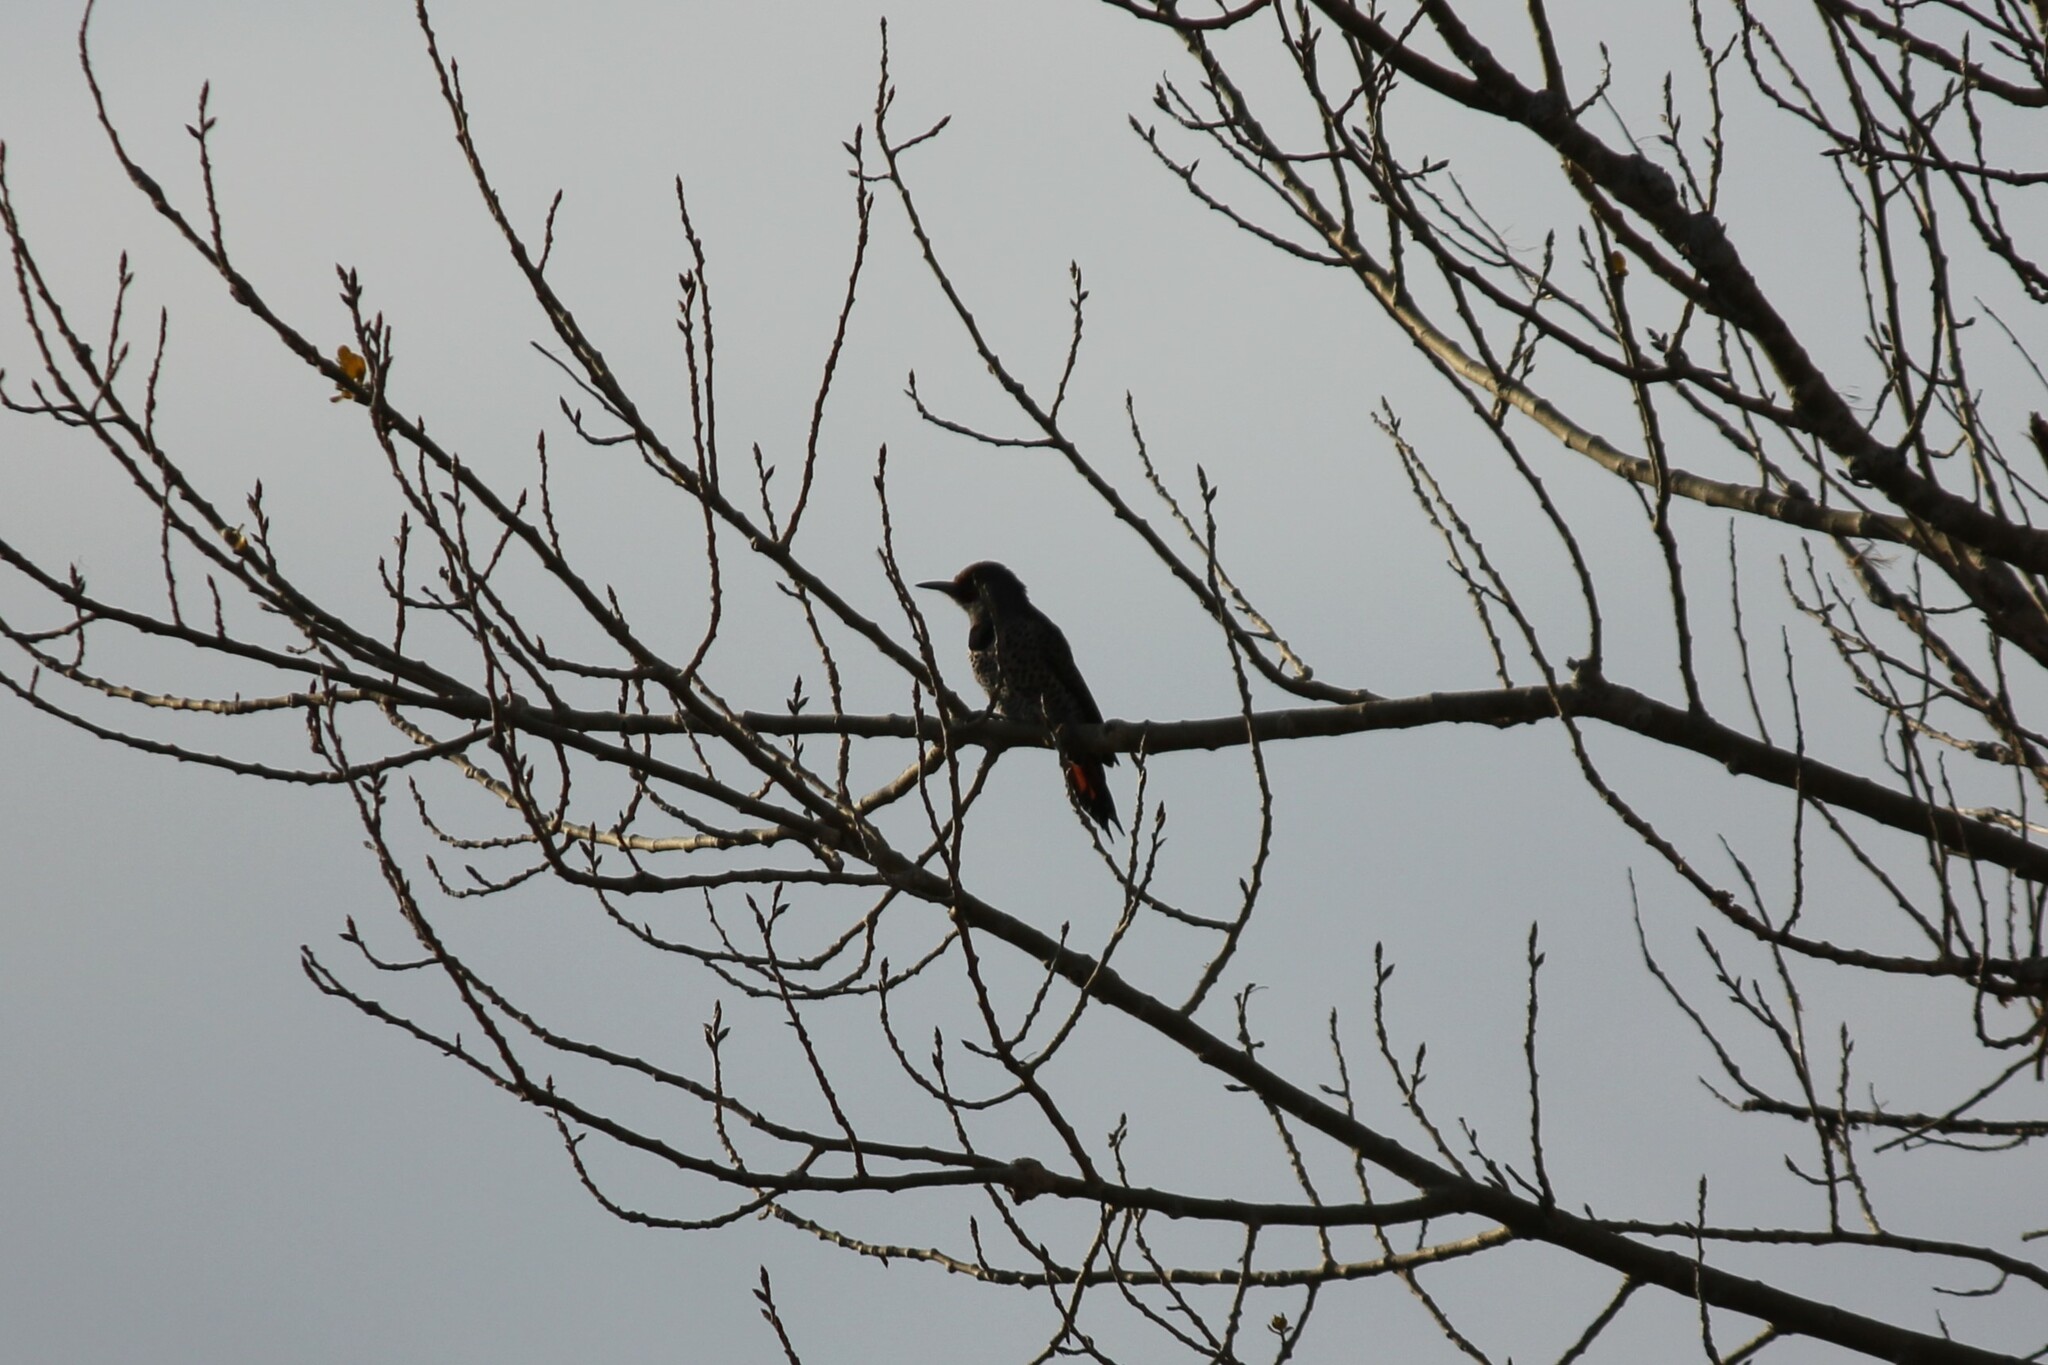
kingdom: Animalia
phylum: Chordata
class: Aves
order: Piciformes
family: Picidae
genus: Colaptes
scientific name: Colaptes auratus
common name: Northern flicker
